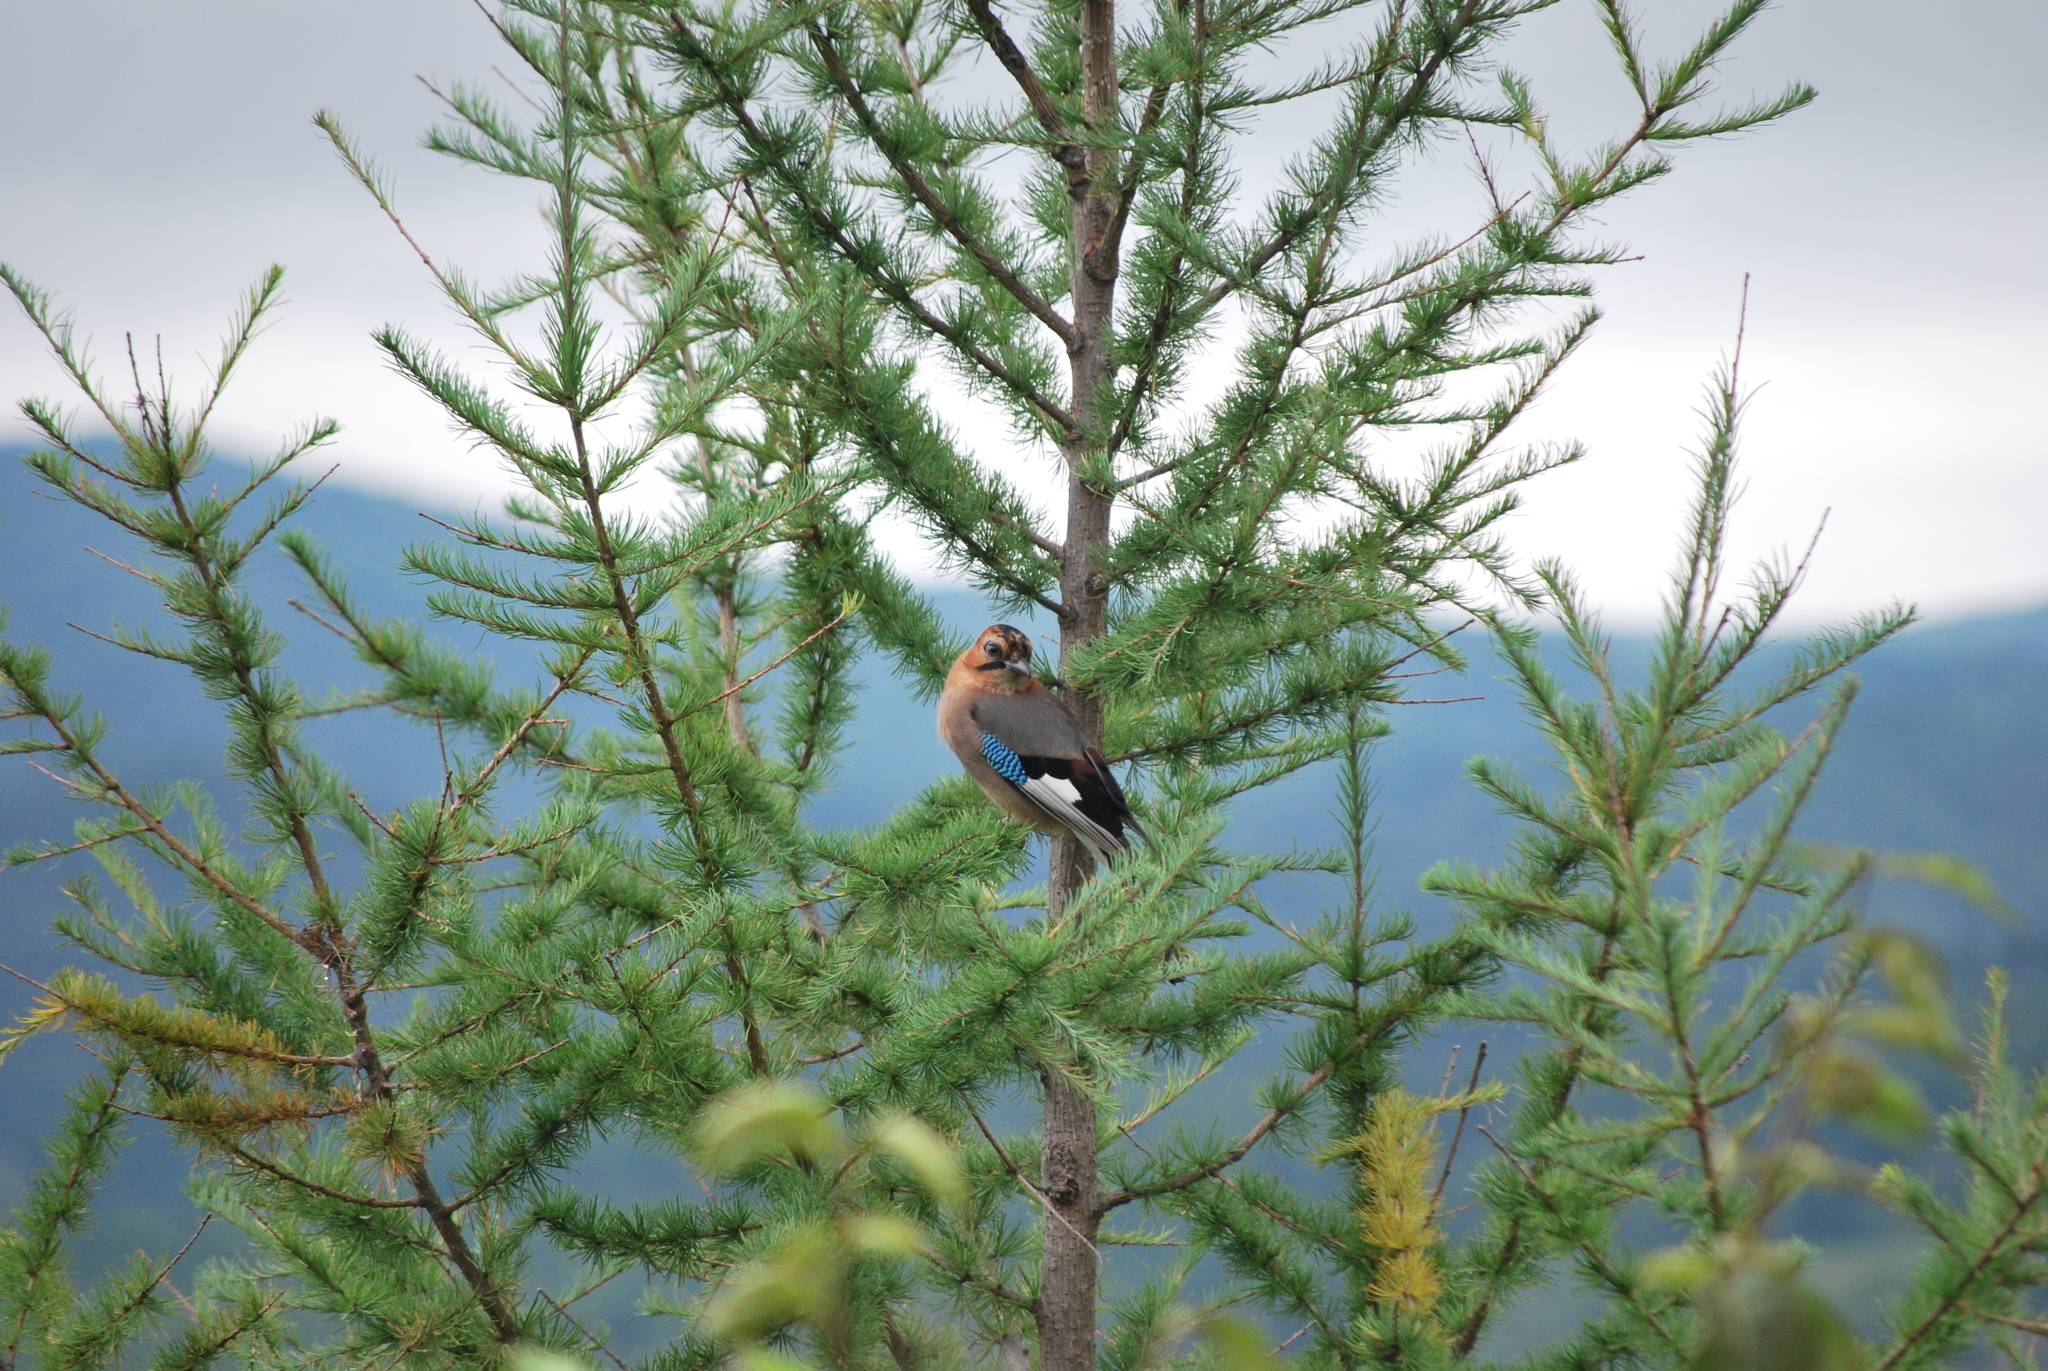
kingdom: Animalia
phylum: Chordata
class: Aves
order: Passeriformes
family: Corvidae
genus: Garrulus
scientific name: Garrulus glandarius
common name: Eurasian jay
